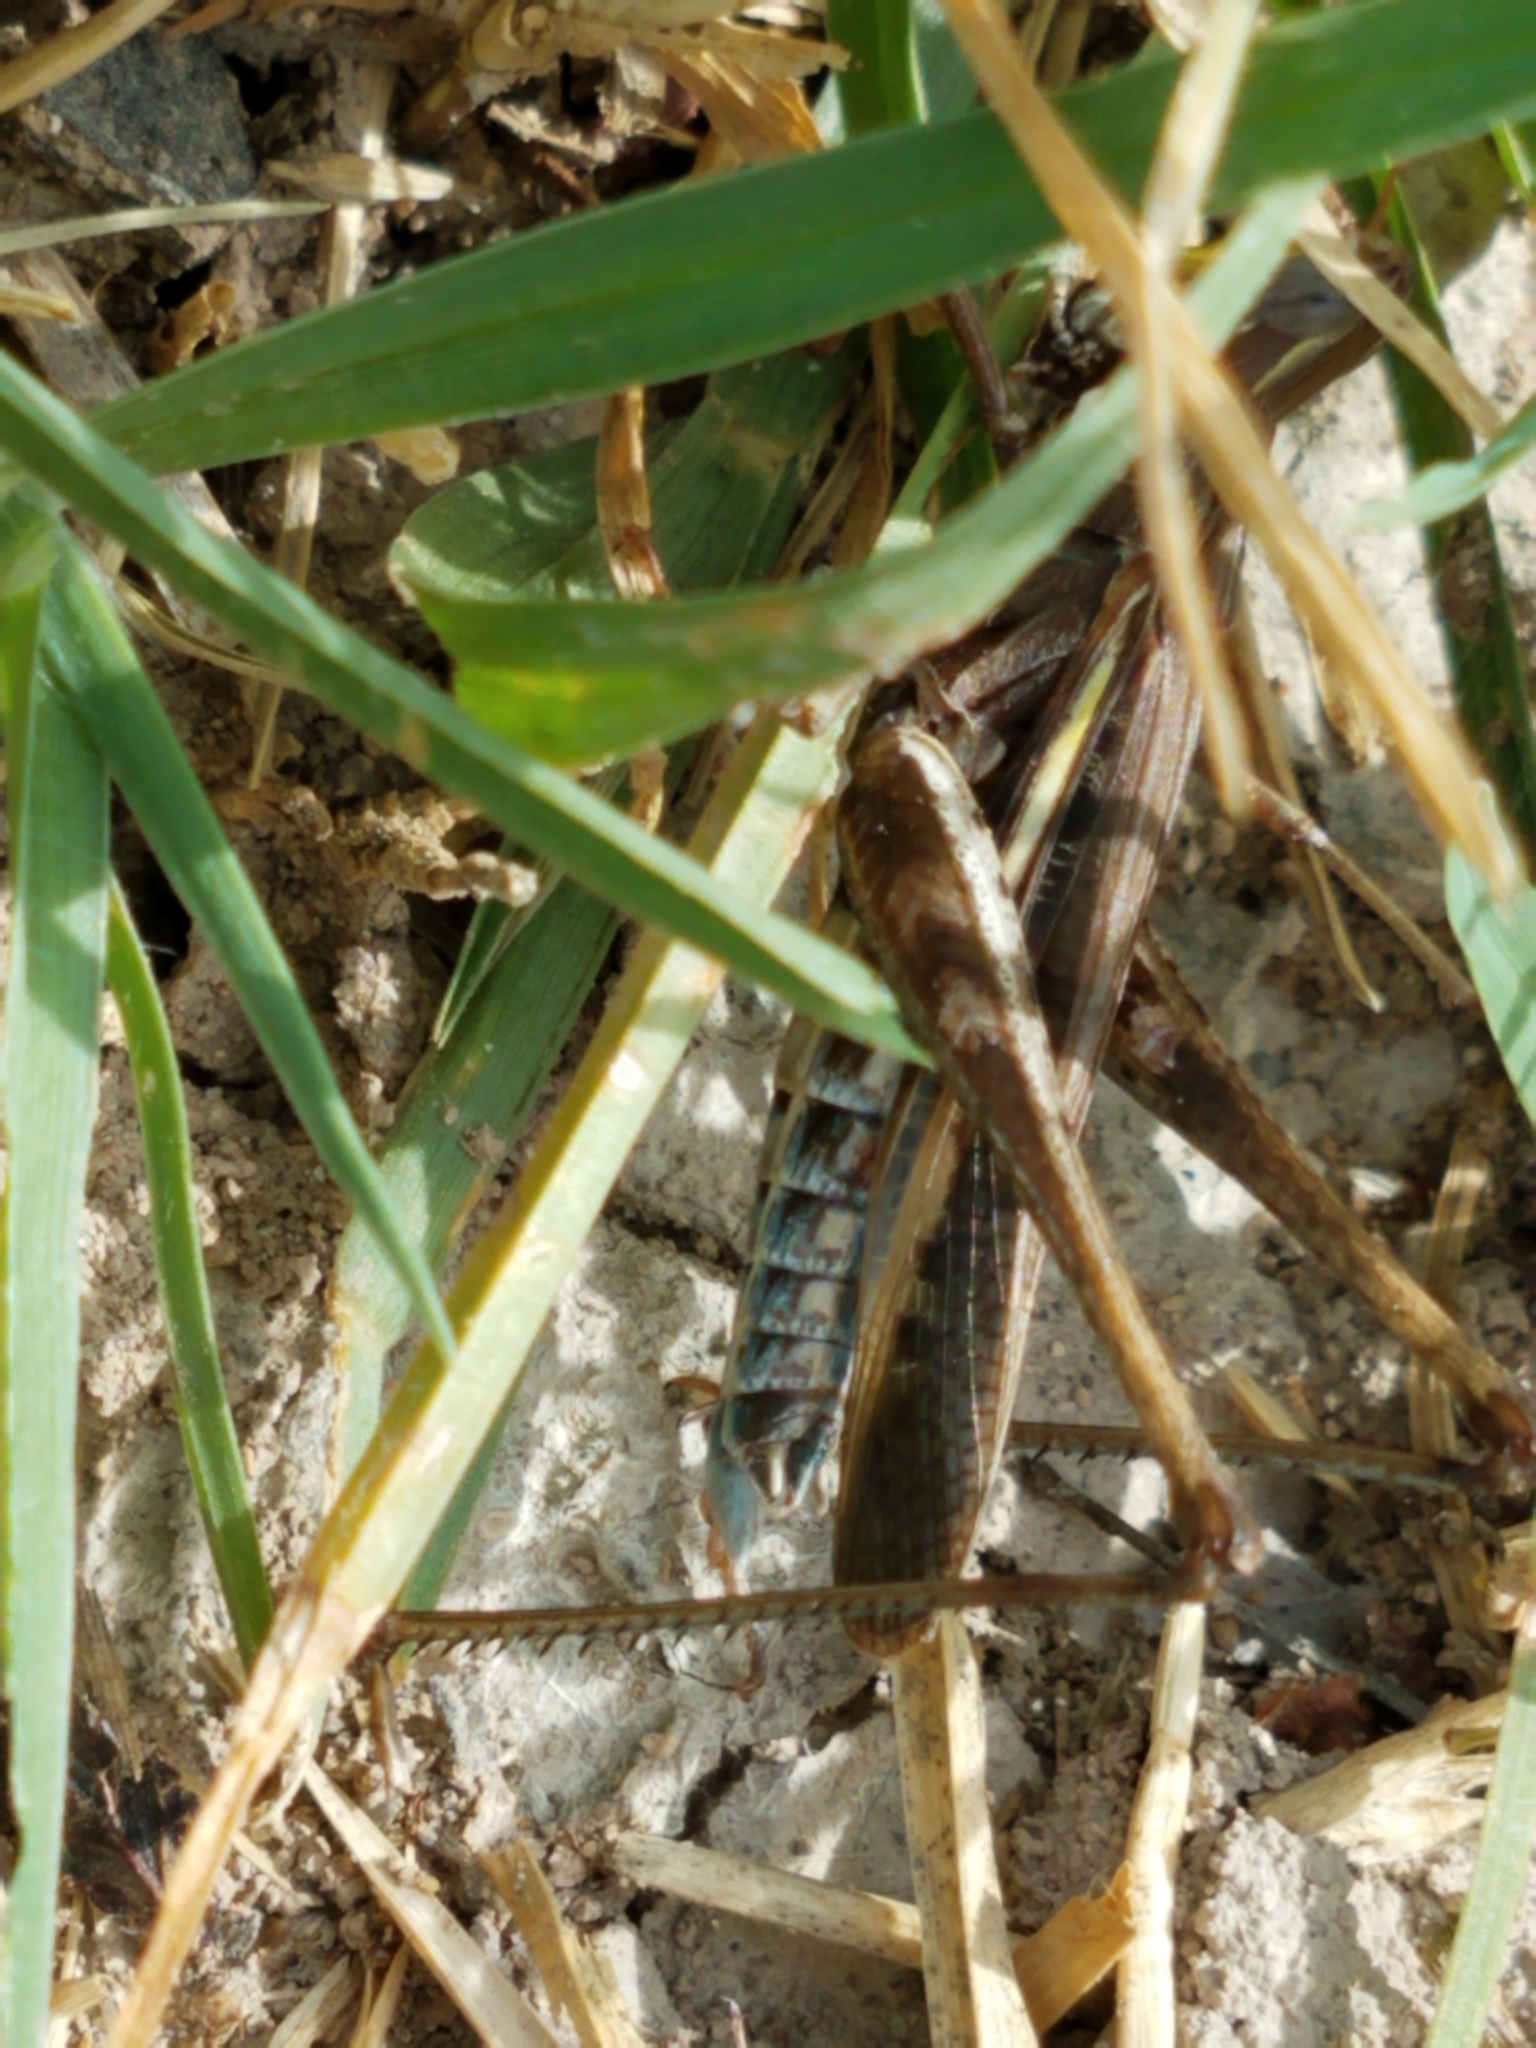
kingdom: Animalia
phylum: Arthropoda
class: Insecta
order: Orthoptera
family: Acrididae
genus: Syrbula
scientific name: Syrbula montezuma
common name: Montezuma's grasshopper
